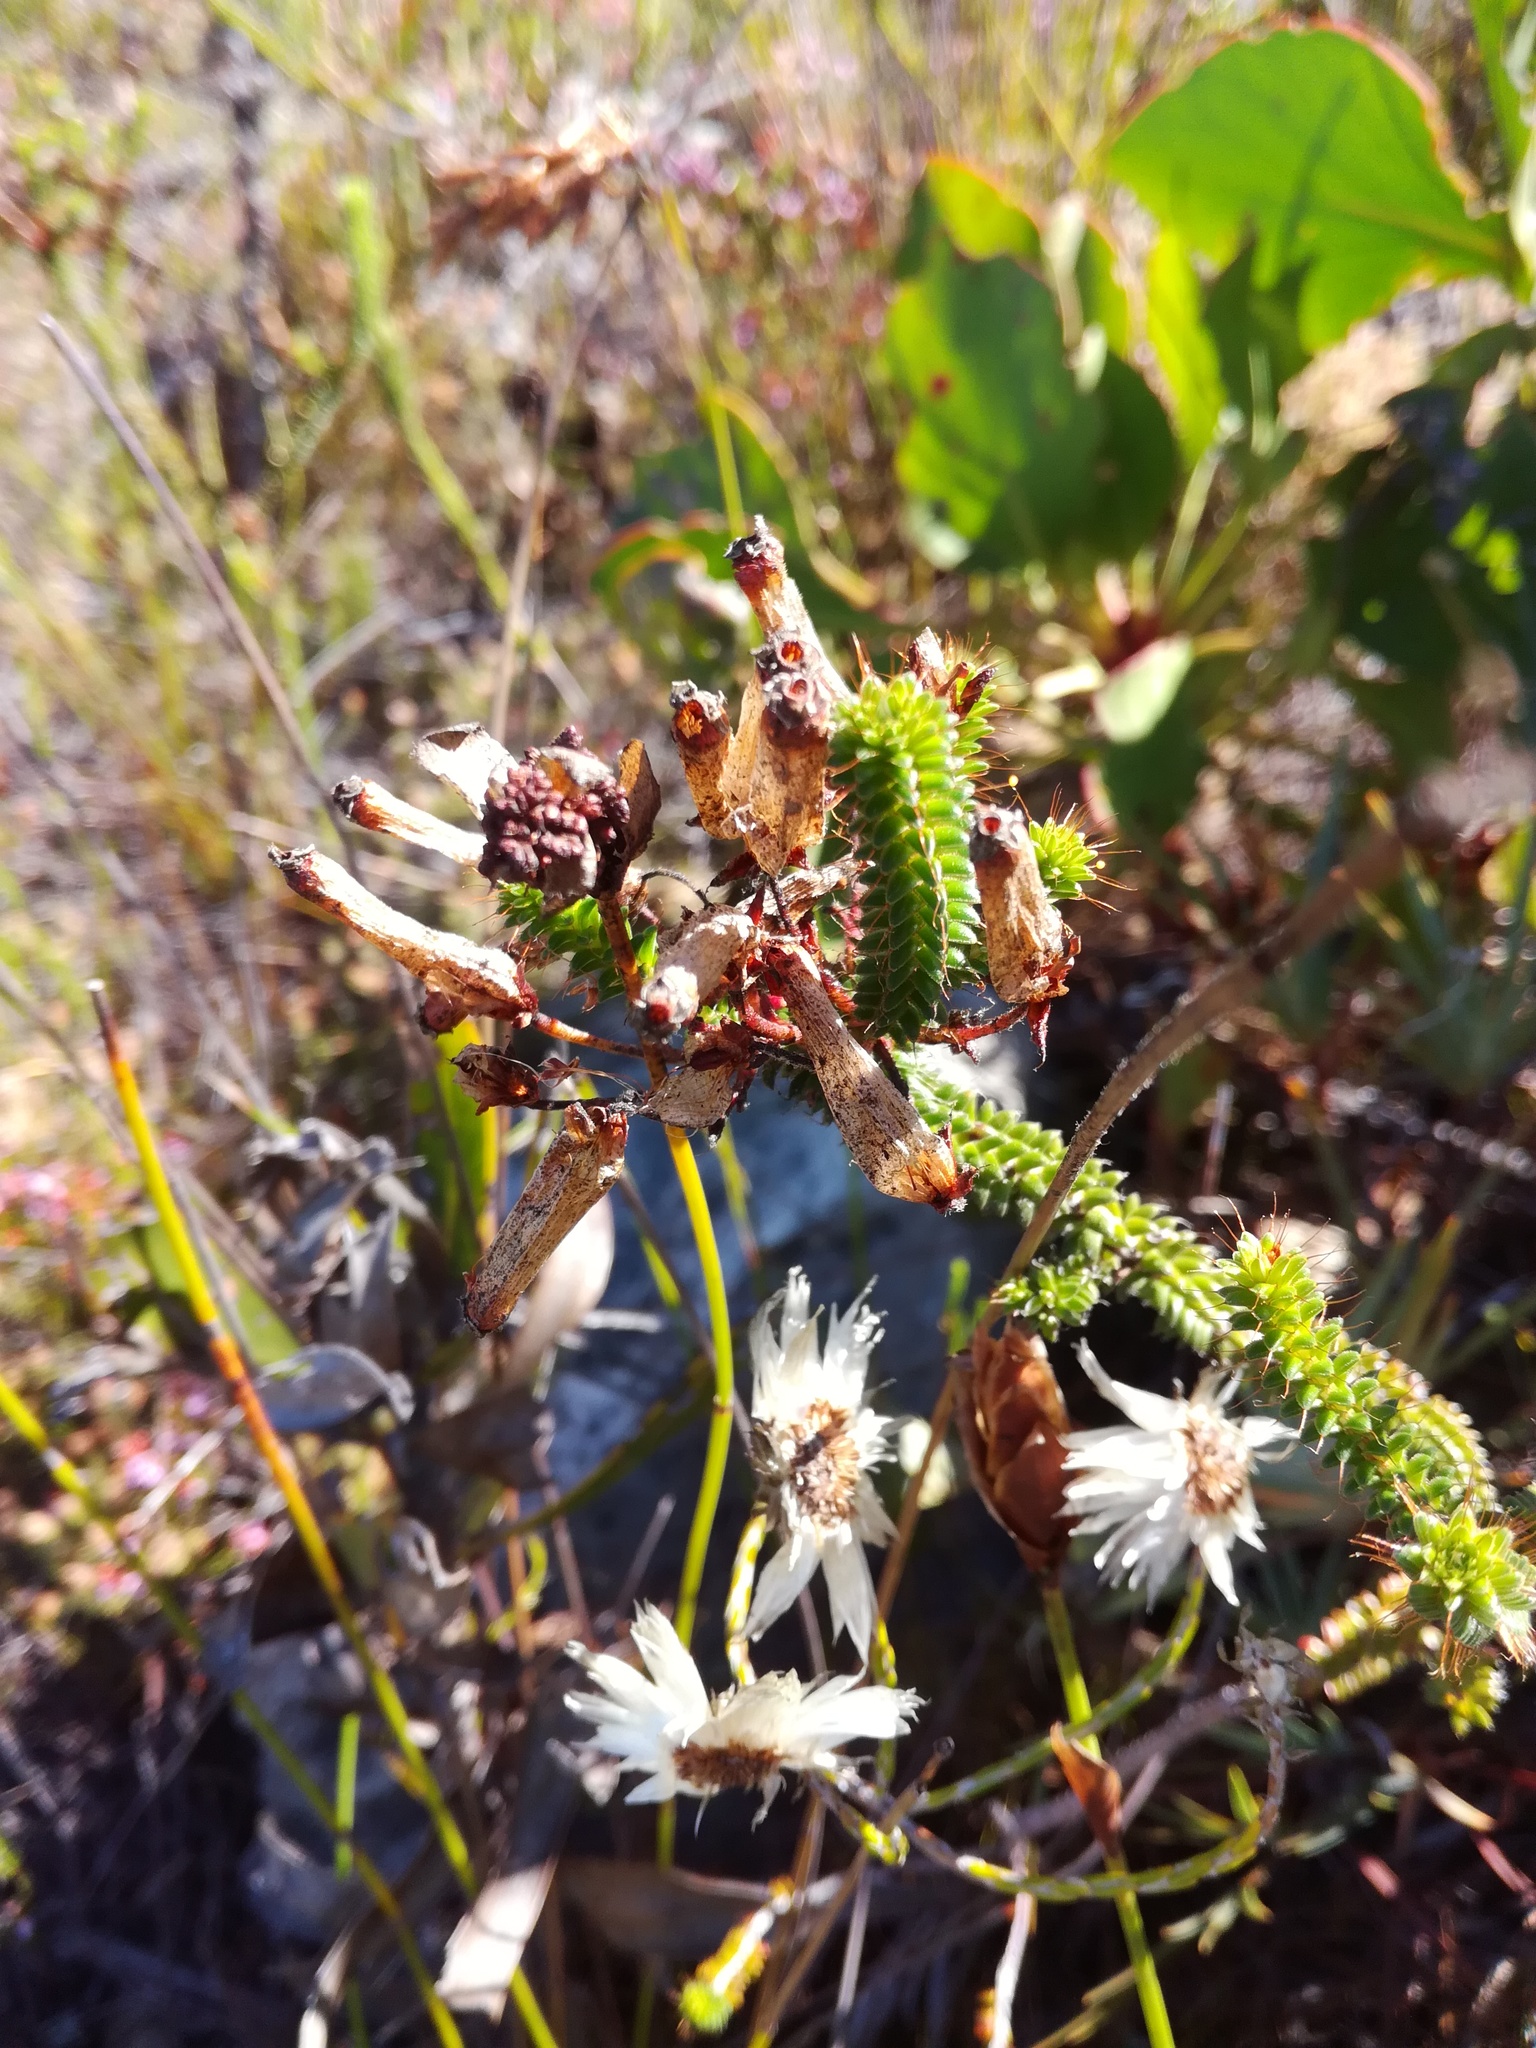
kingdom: Plantae
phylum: Tracheophyta
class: Magnoliopsida
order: Ericales
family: Ericaceae
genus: Erica
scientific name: Erica retorta
